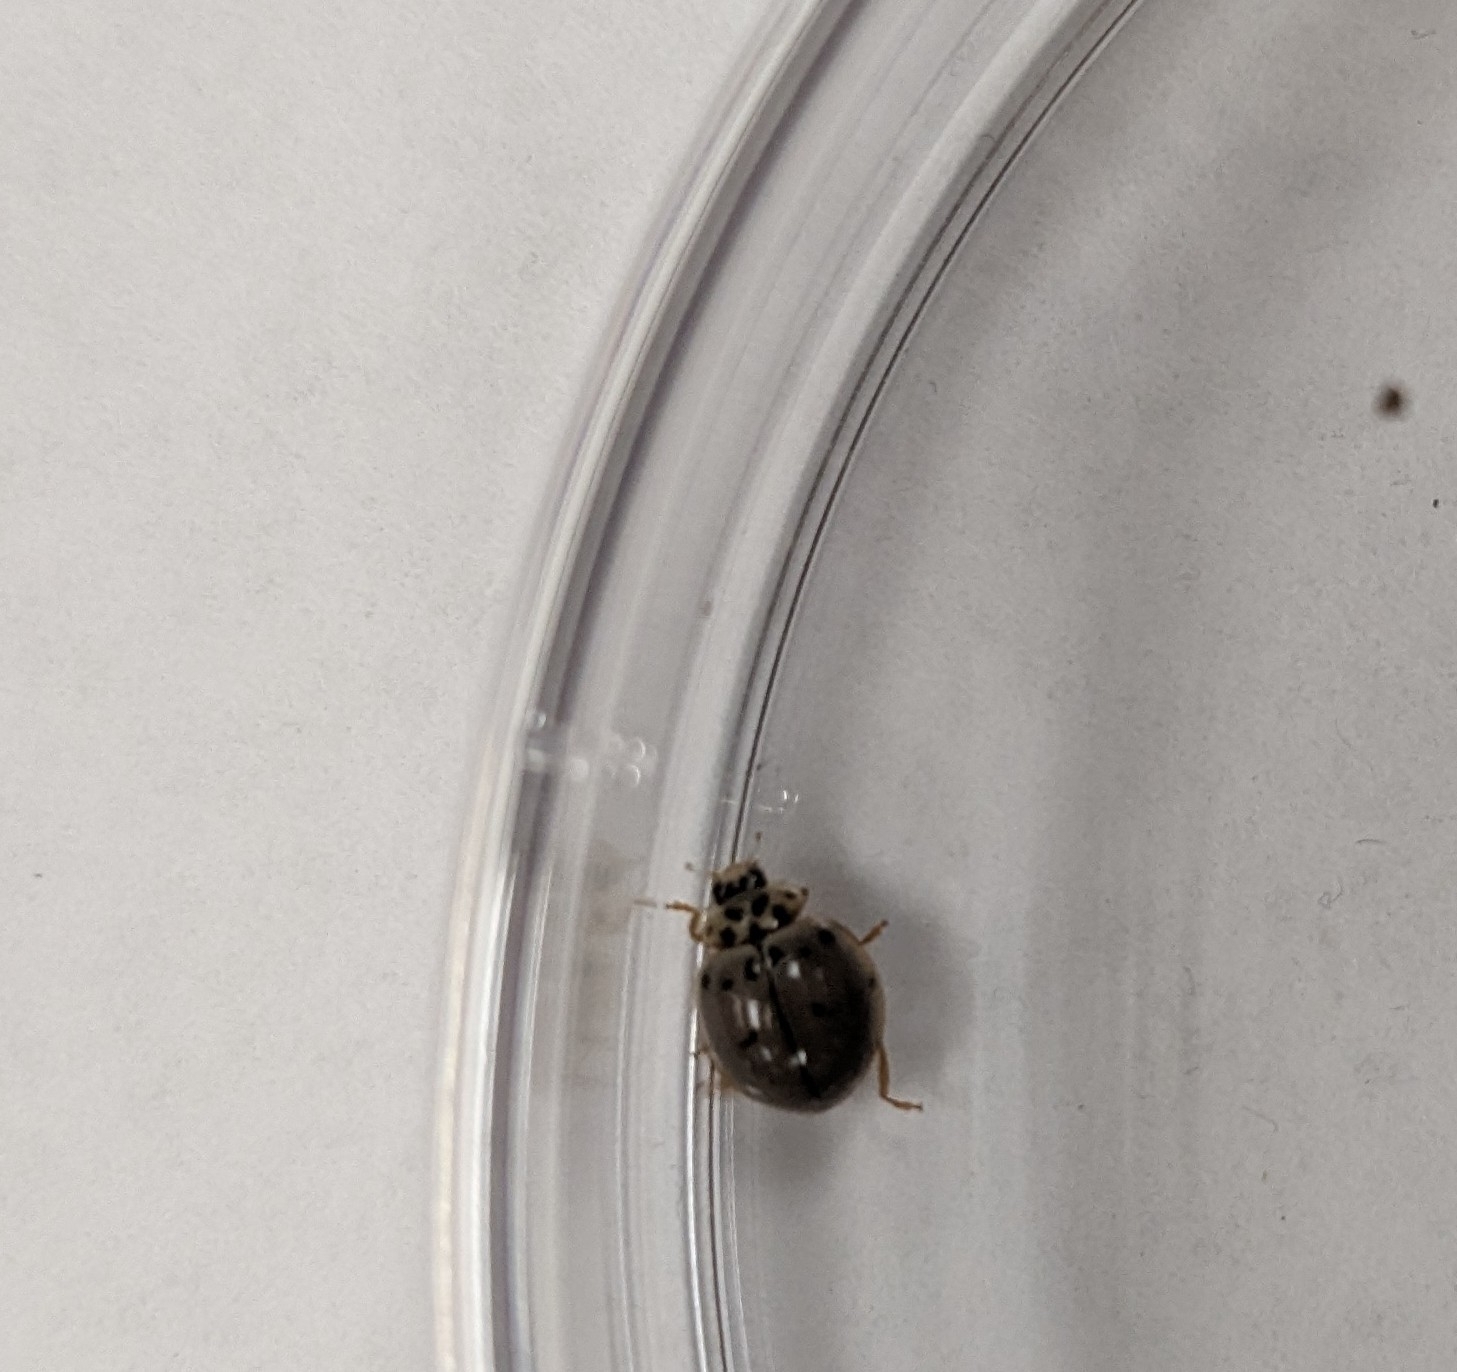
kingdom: Animalia
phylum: Arthropoda
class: Insecta
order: Coleoptera
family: Coccinellidae
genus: Olla
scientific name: Olla v-nigrum
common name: Ashy gray lady beetle
